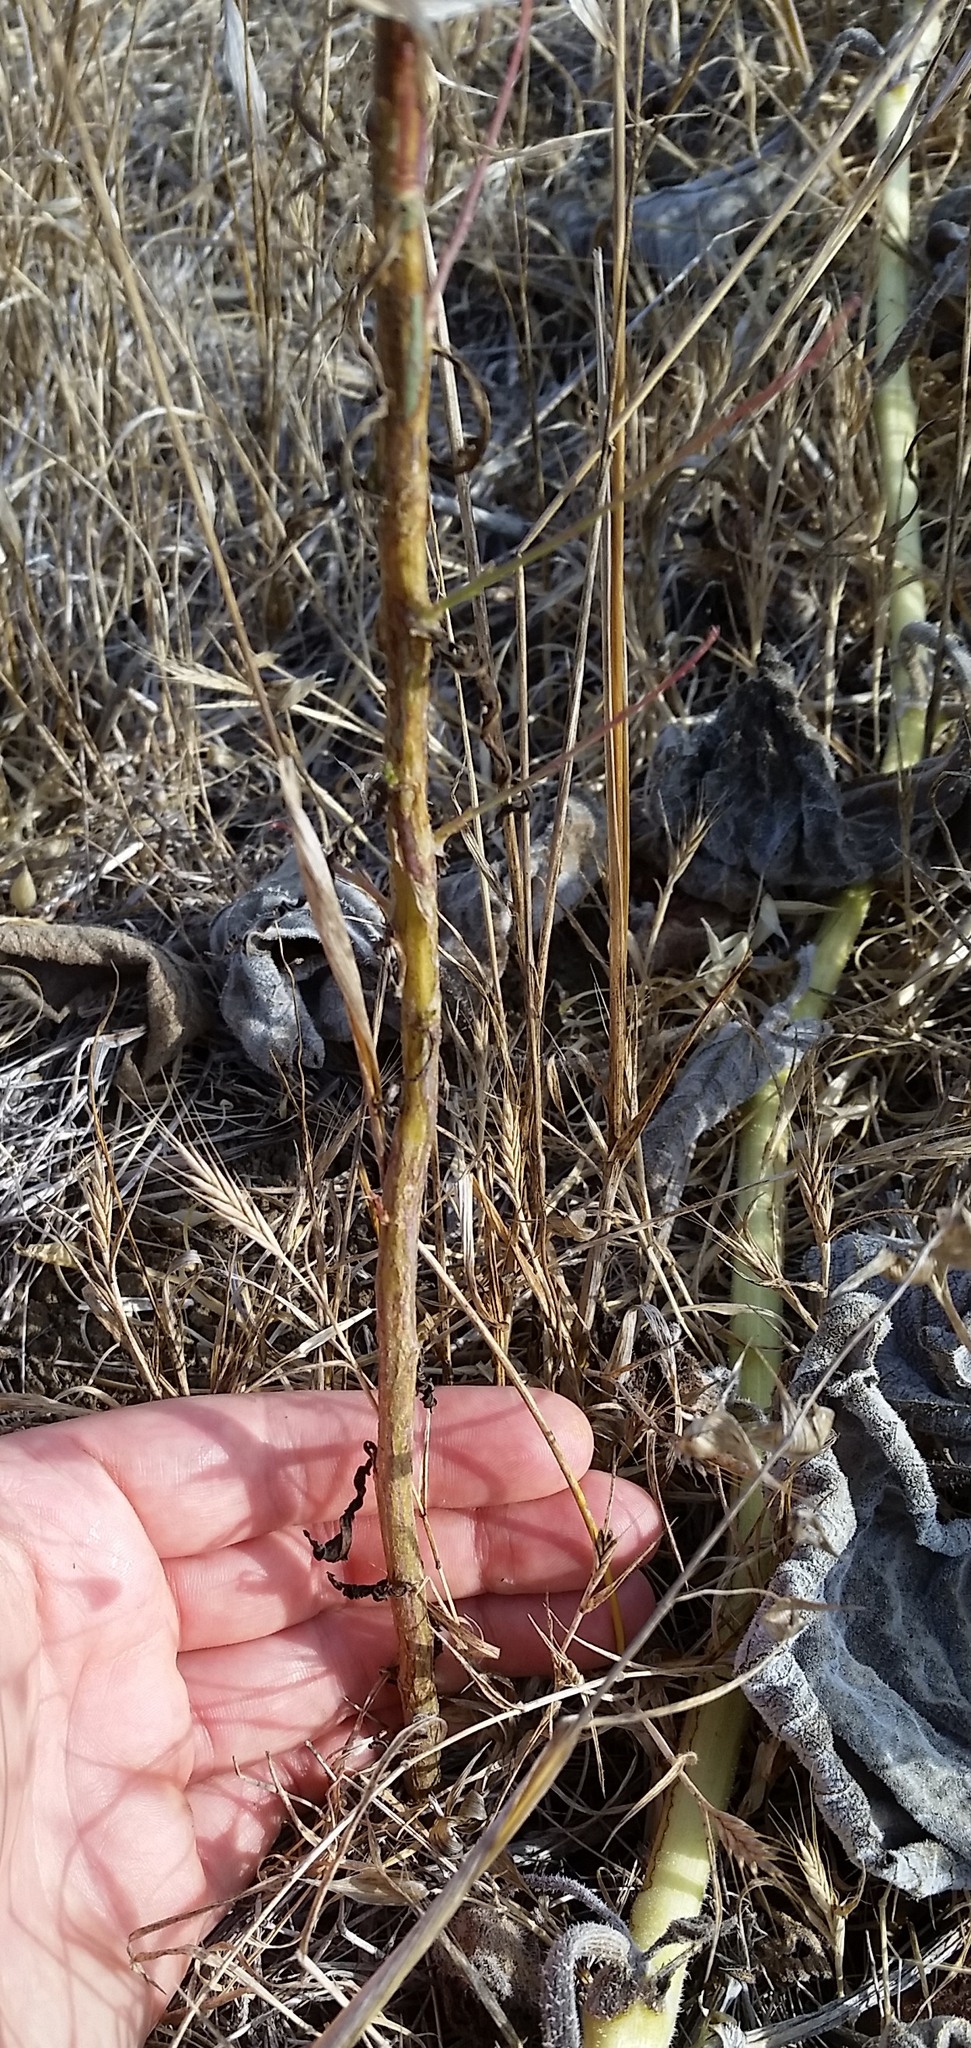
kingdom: Plantae
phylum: Tracheophyta
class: Magnoliopsida
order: Asterales
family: Asteraceae
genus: Stephanomeria
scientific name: Stephanomeria diegensis
